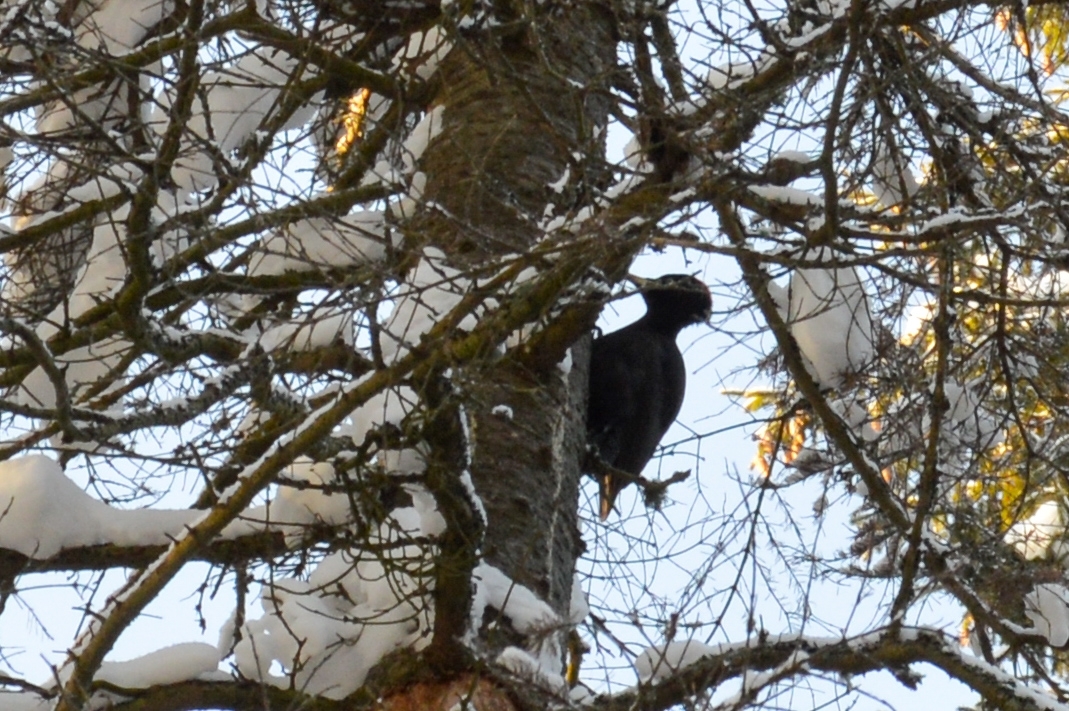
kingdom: Animalia
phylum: Chordata
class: Aves
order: Piciformes
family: Picidae
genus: Dryocopus
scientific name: Dryocopus martius
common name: Black woodpecker
